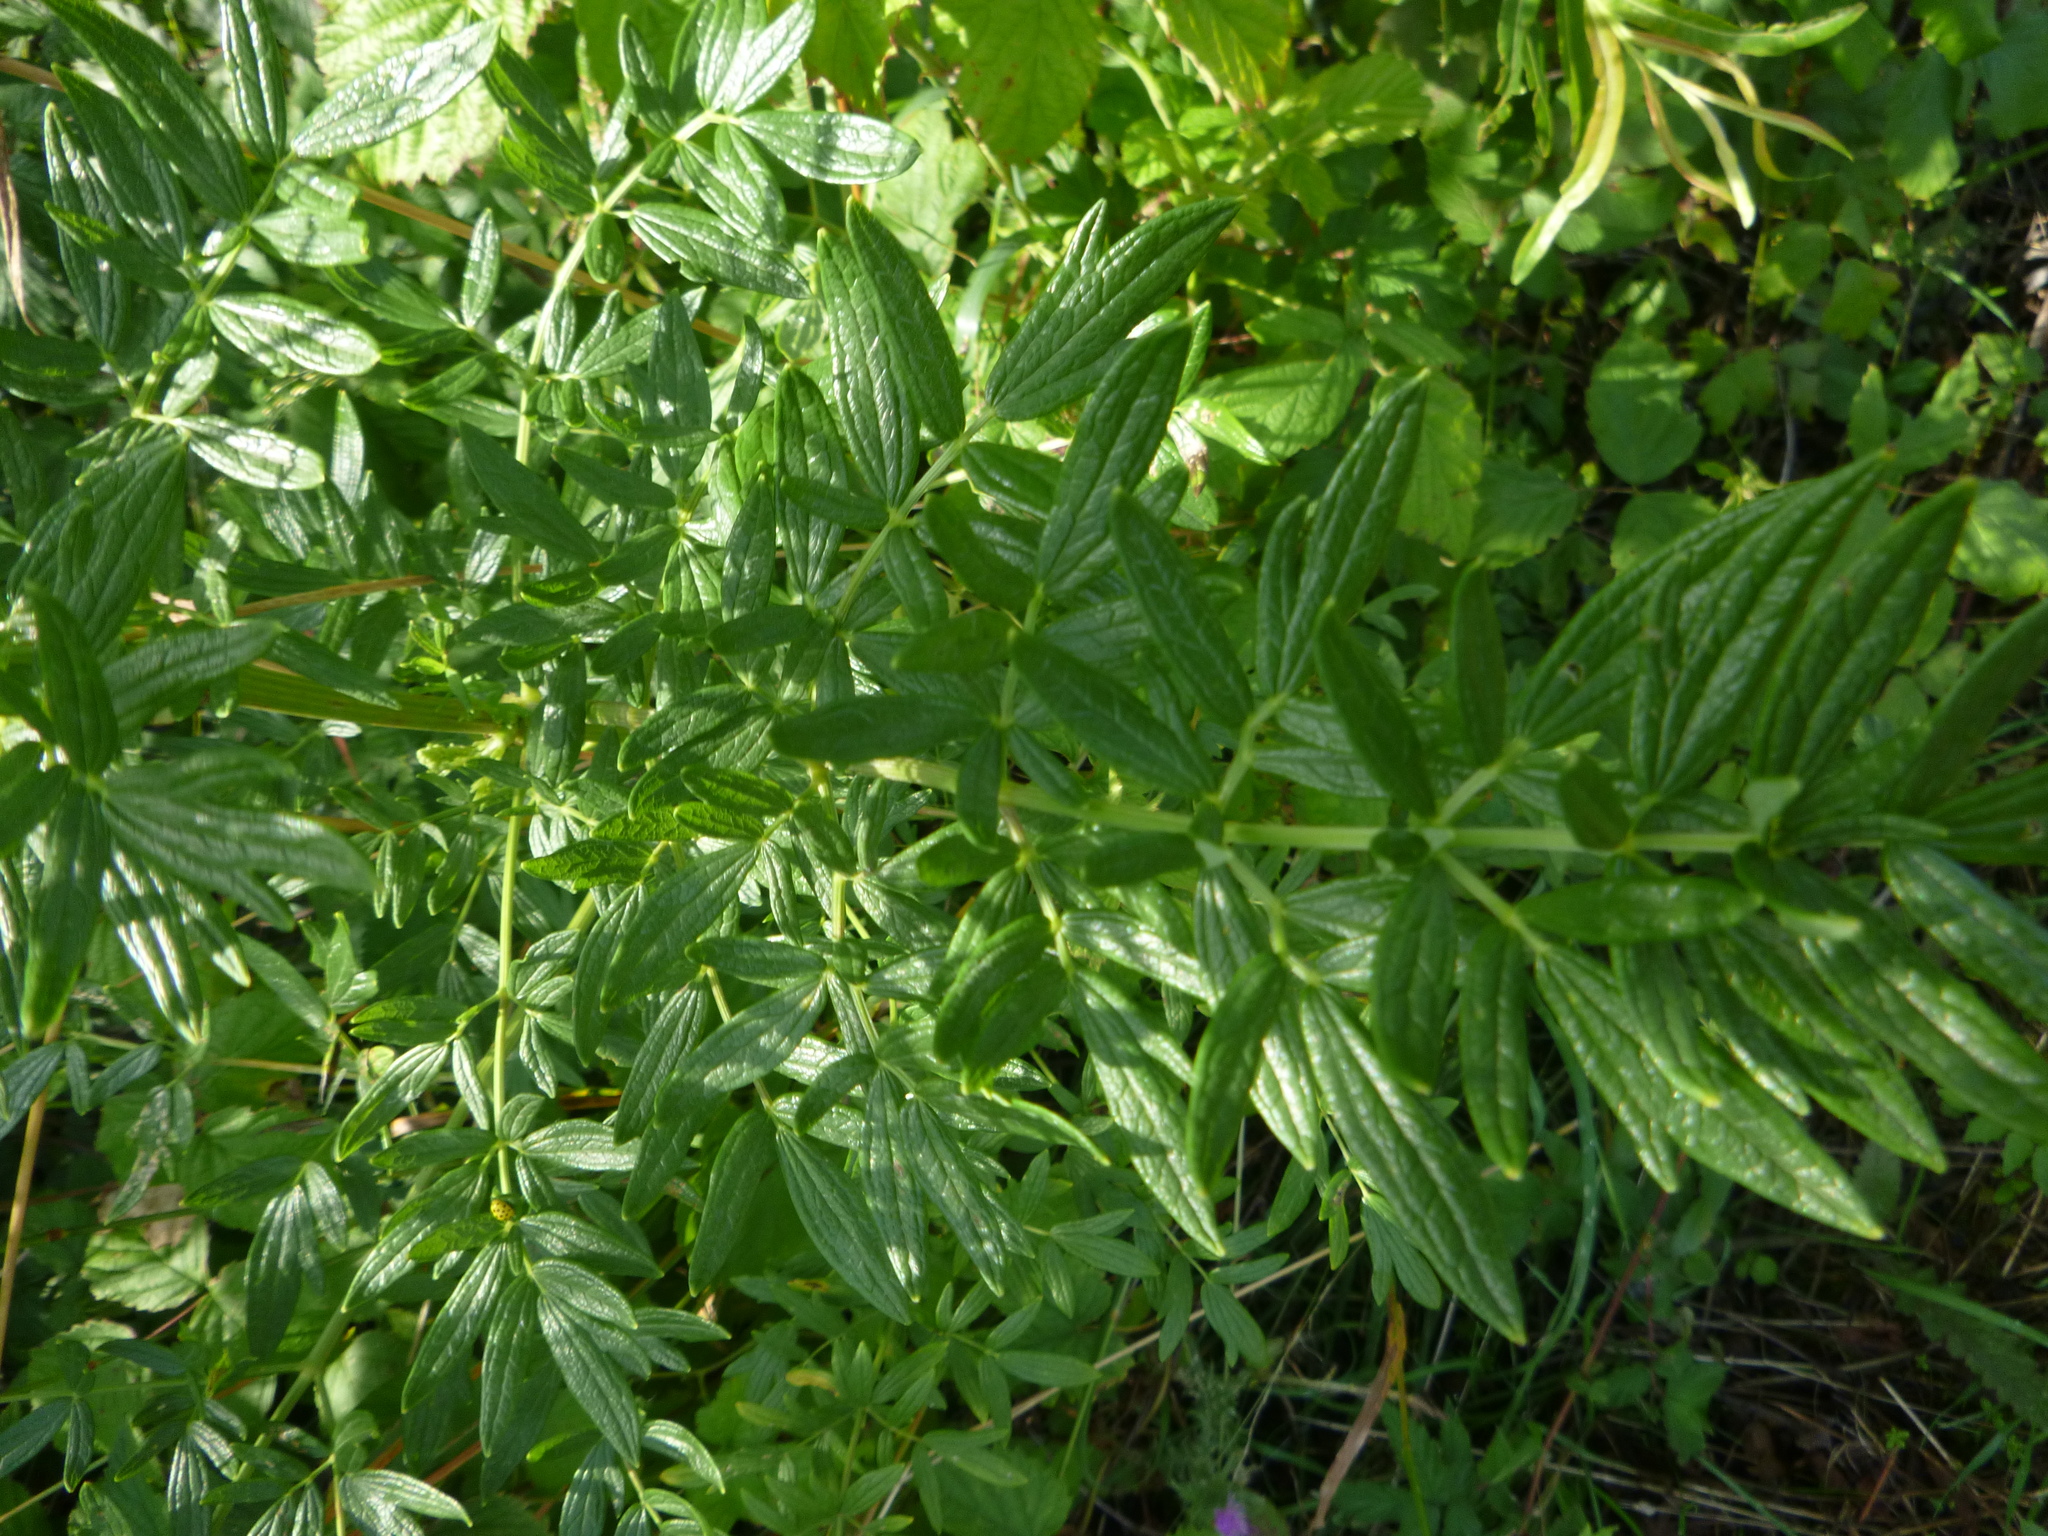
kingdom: Plantae
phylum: Tracheophyta
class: Magnoliopsida
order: Ranunculales
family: Ranunculaceae
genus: Thalictrum
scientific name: Thalictrum lucidum
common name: Shining meadow-rue
